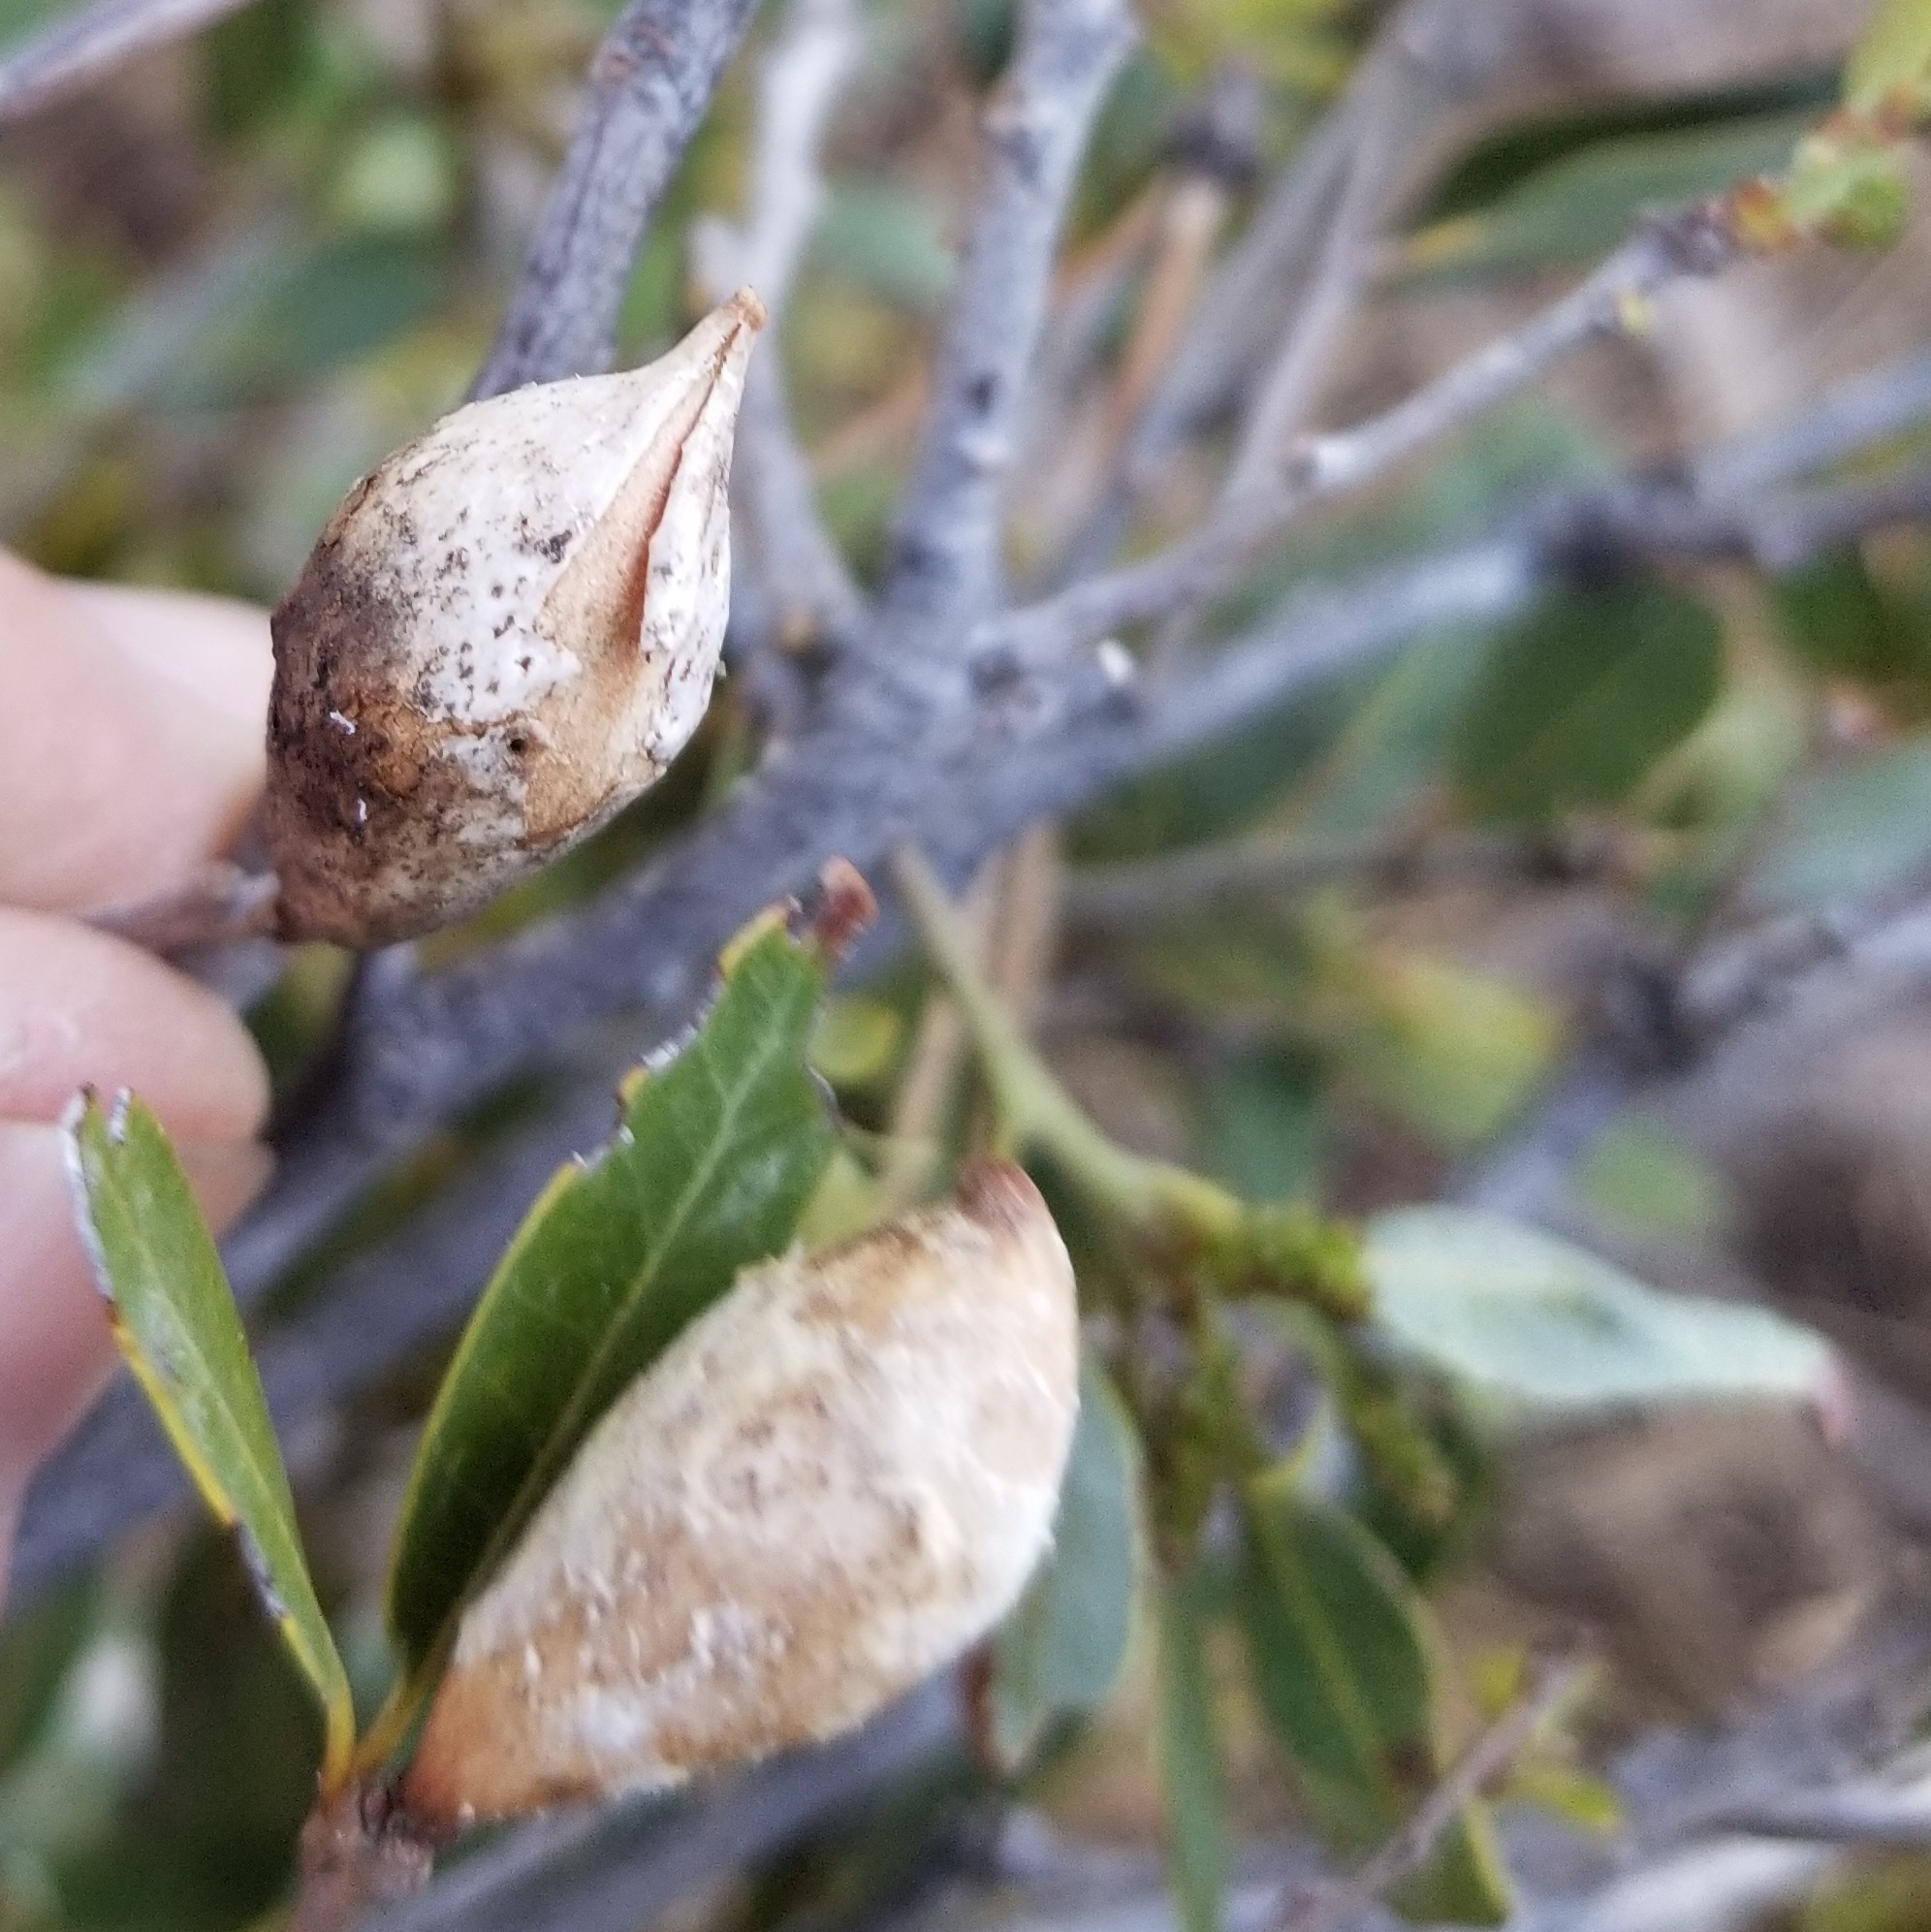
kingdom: Animalia
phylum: Arthropoda
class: Insecta
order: Hymenoptera
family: Cynipidae
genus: Heteroecus
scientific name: Heteroecus pacificus
